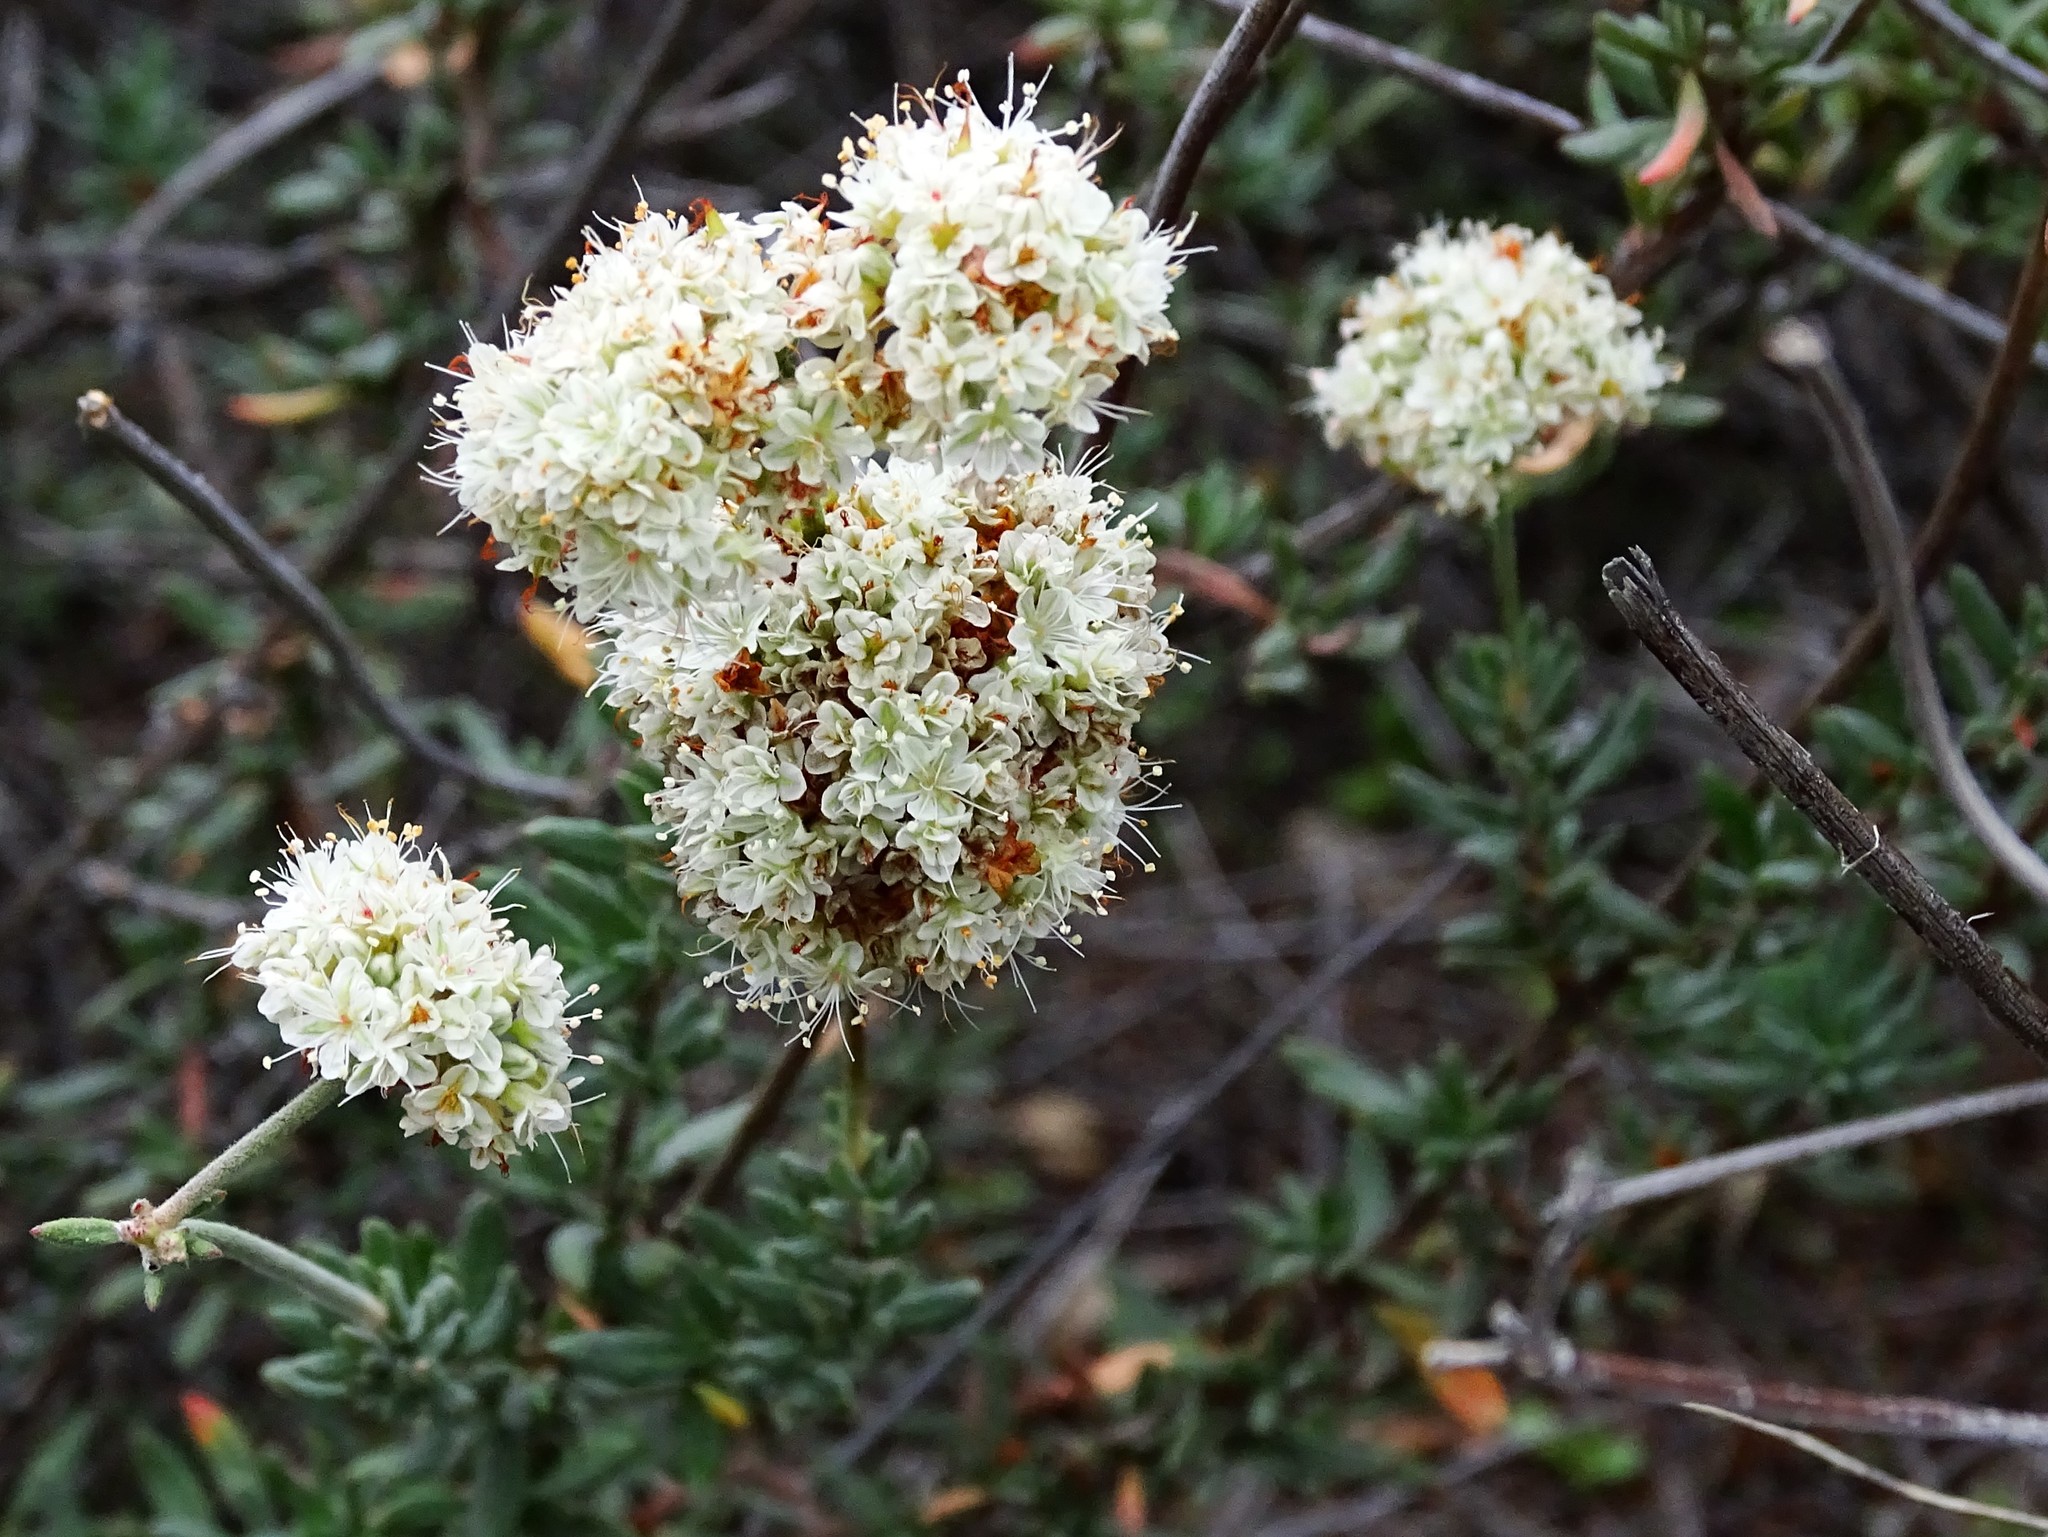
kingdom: Plantae
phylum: Tracheophyta
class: Magnoliopsida
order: Caryophyllales
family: Polygonaceae
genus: Eriogonum
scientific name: Eriogonum fasciculatum
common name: California wild buckwheat
